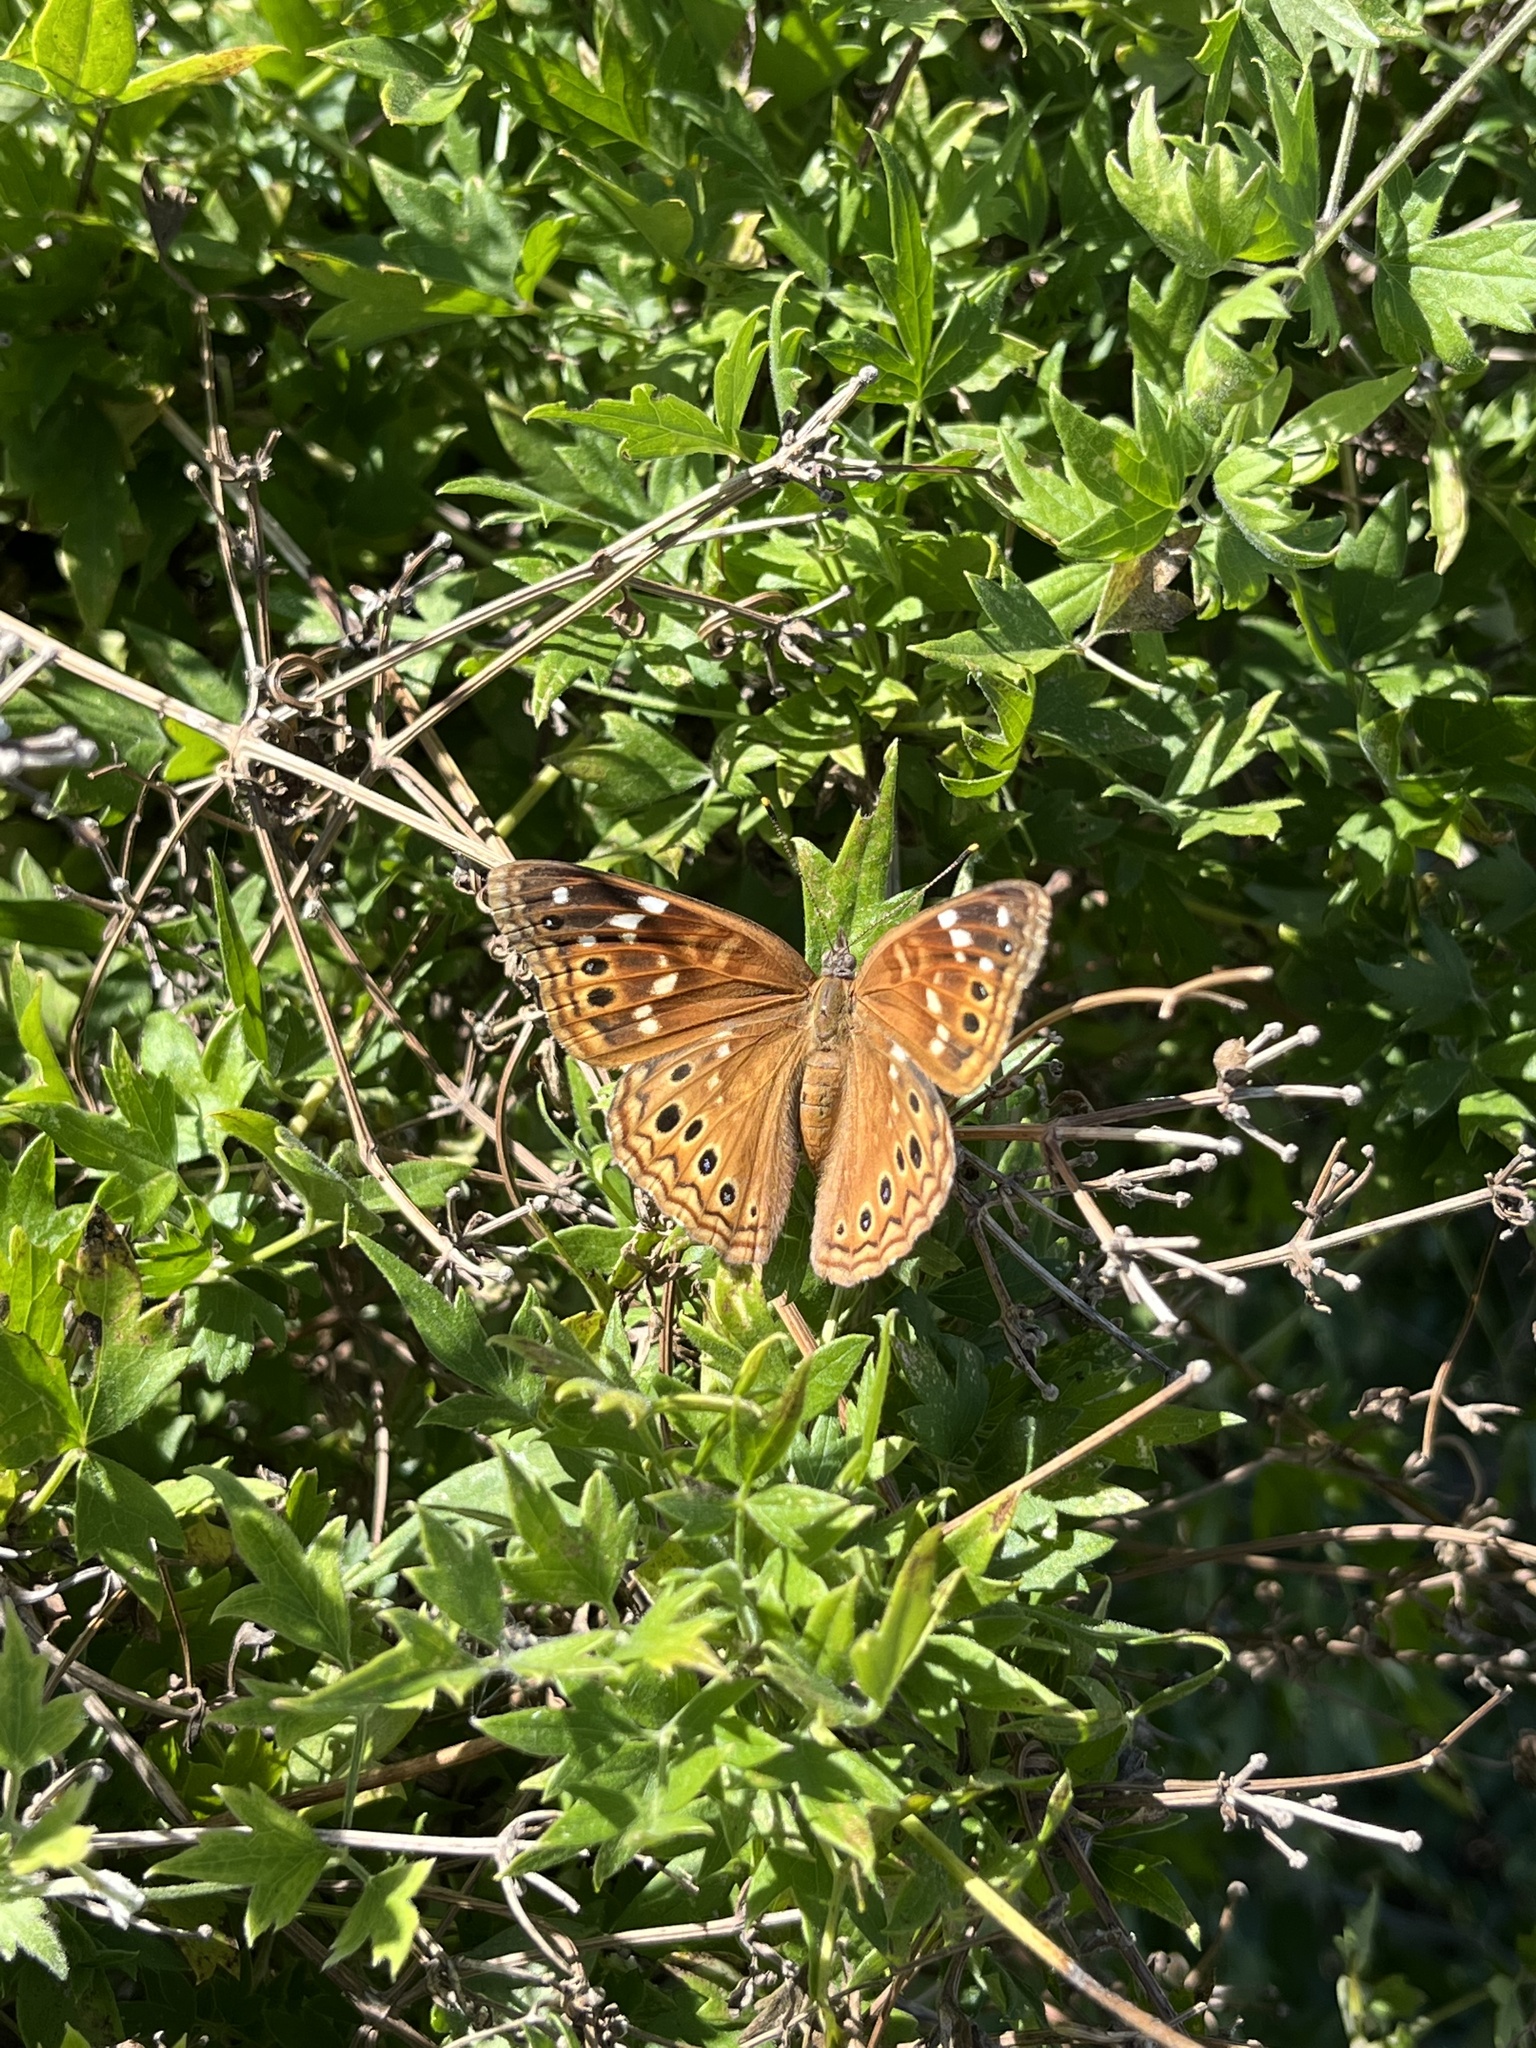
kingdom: Animalia
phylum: Arthropoda
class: Insecta
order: Lepidoptera
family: Nymphalidae
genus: Asterocampa
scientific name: Asterocampa leilia
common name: Empress leilia
